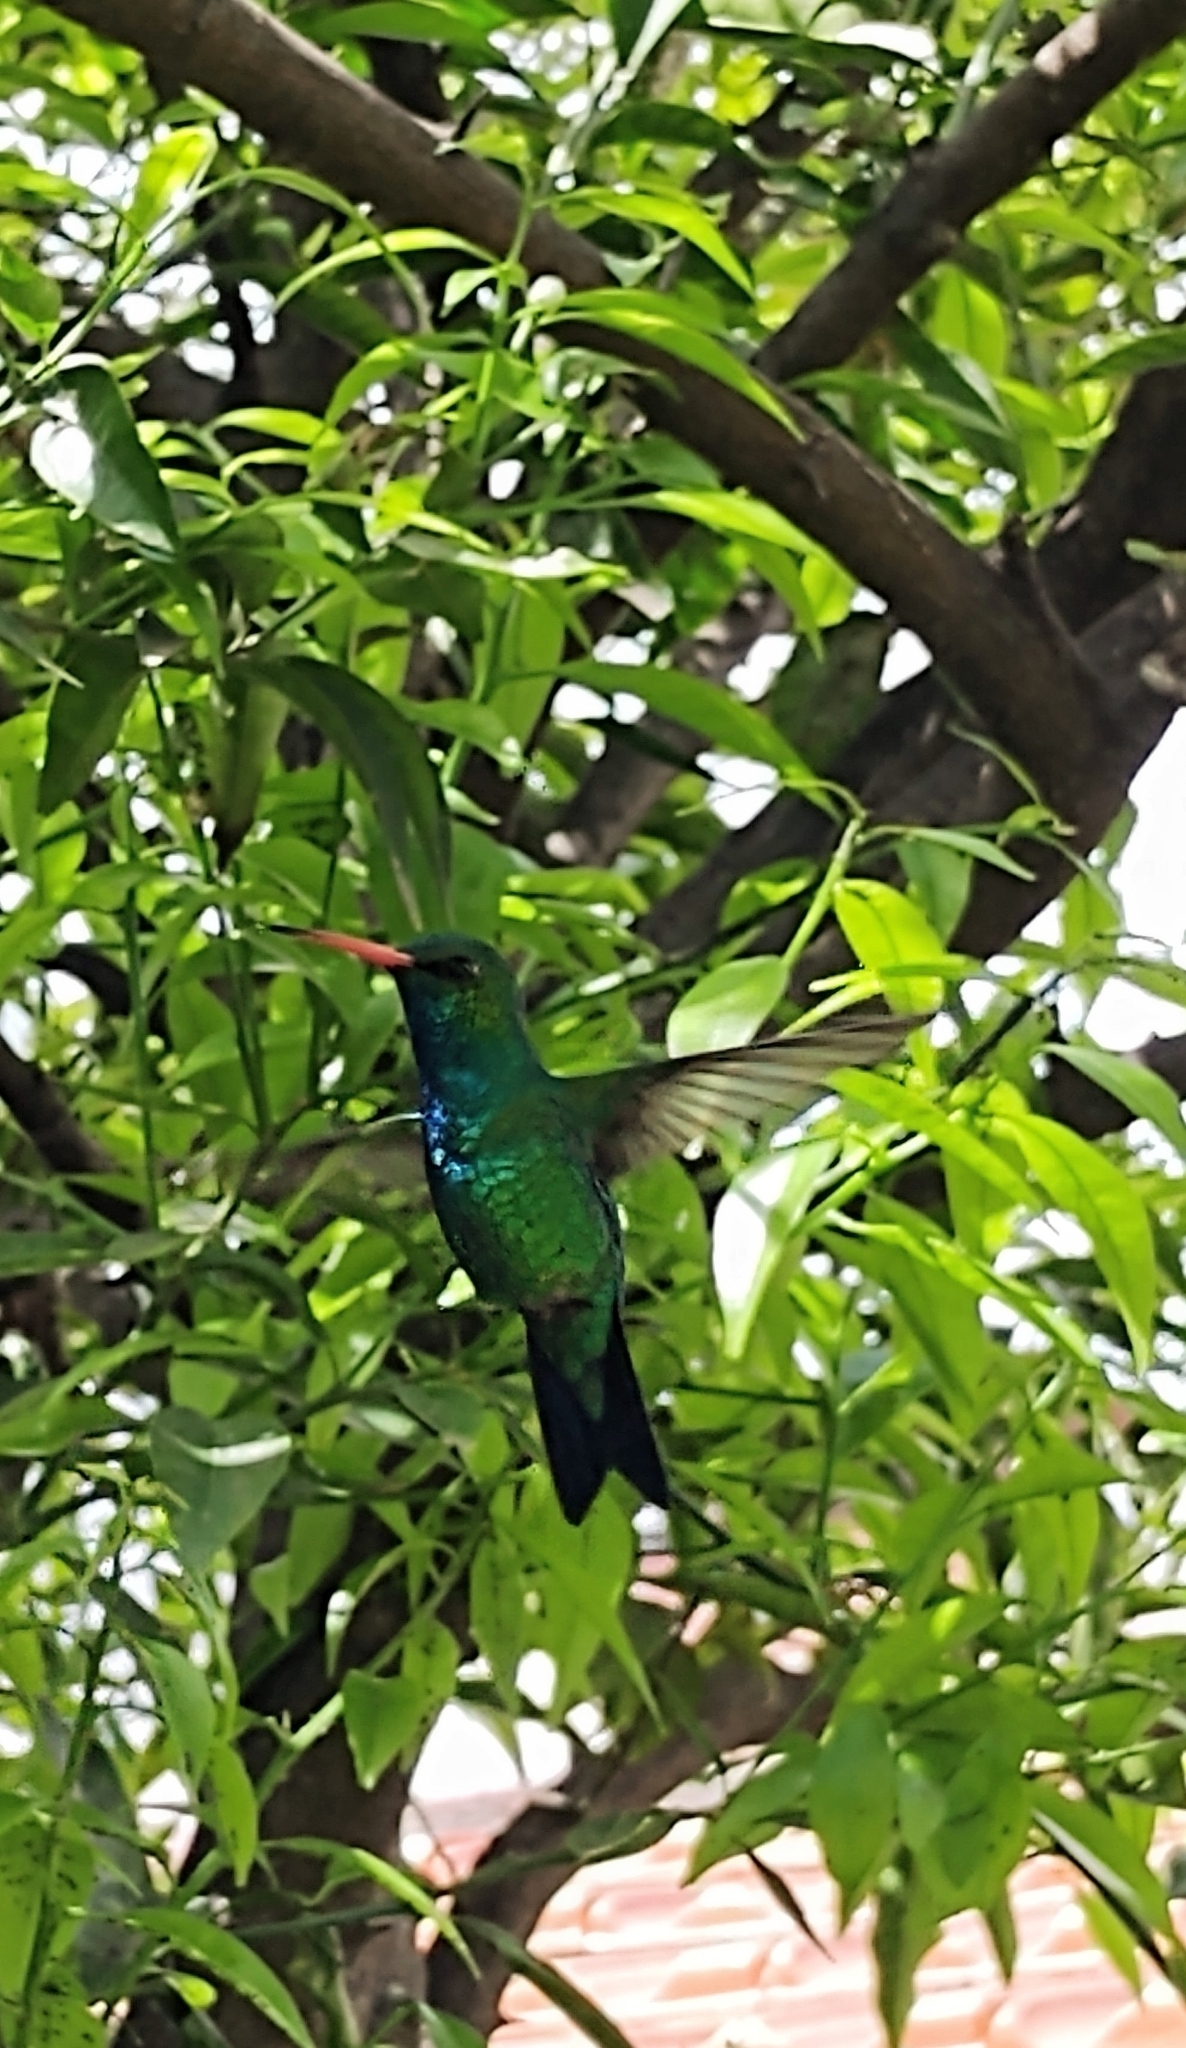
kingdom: Animalia
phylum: Chordata
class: Aves
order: Apodiformes
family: Trochilidae
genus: Chlorostilbon
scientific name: Chlorostilbon lucidus
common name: Glittering-bellied emerald
